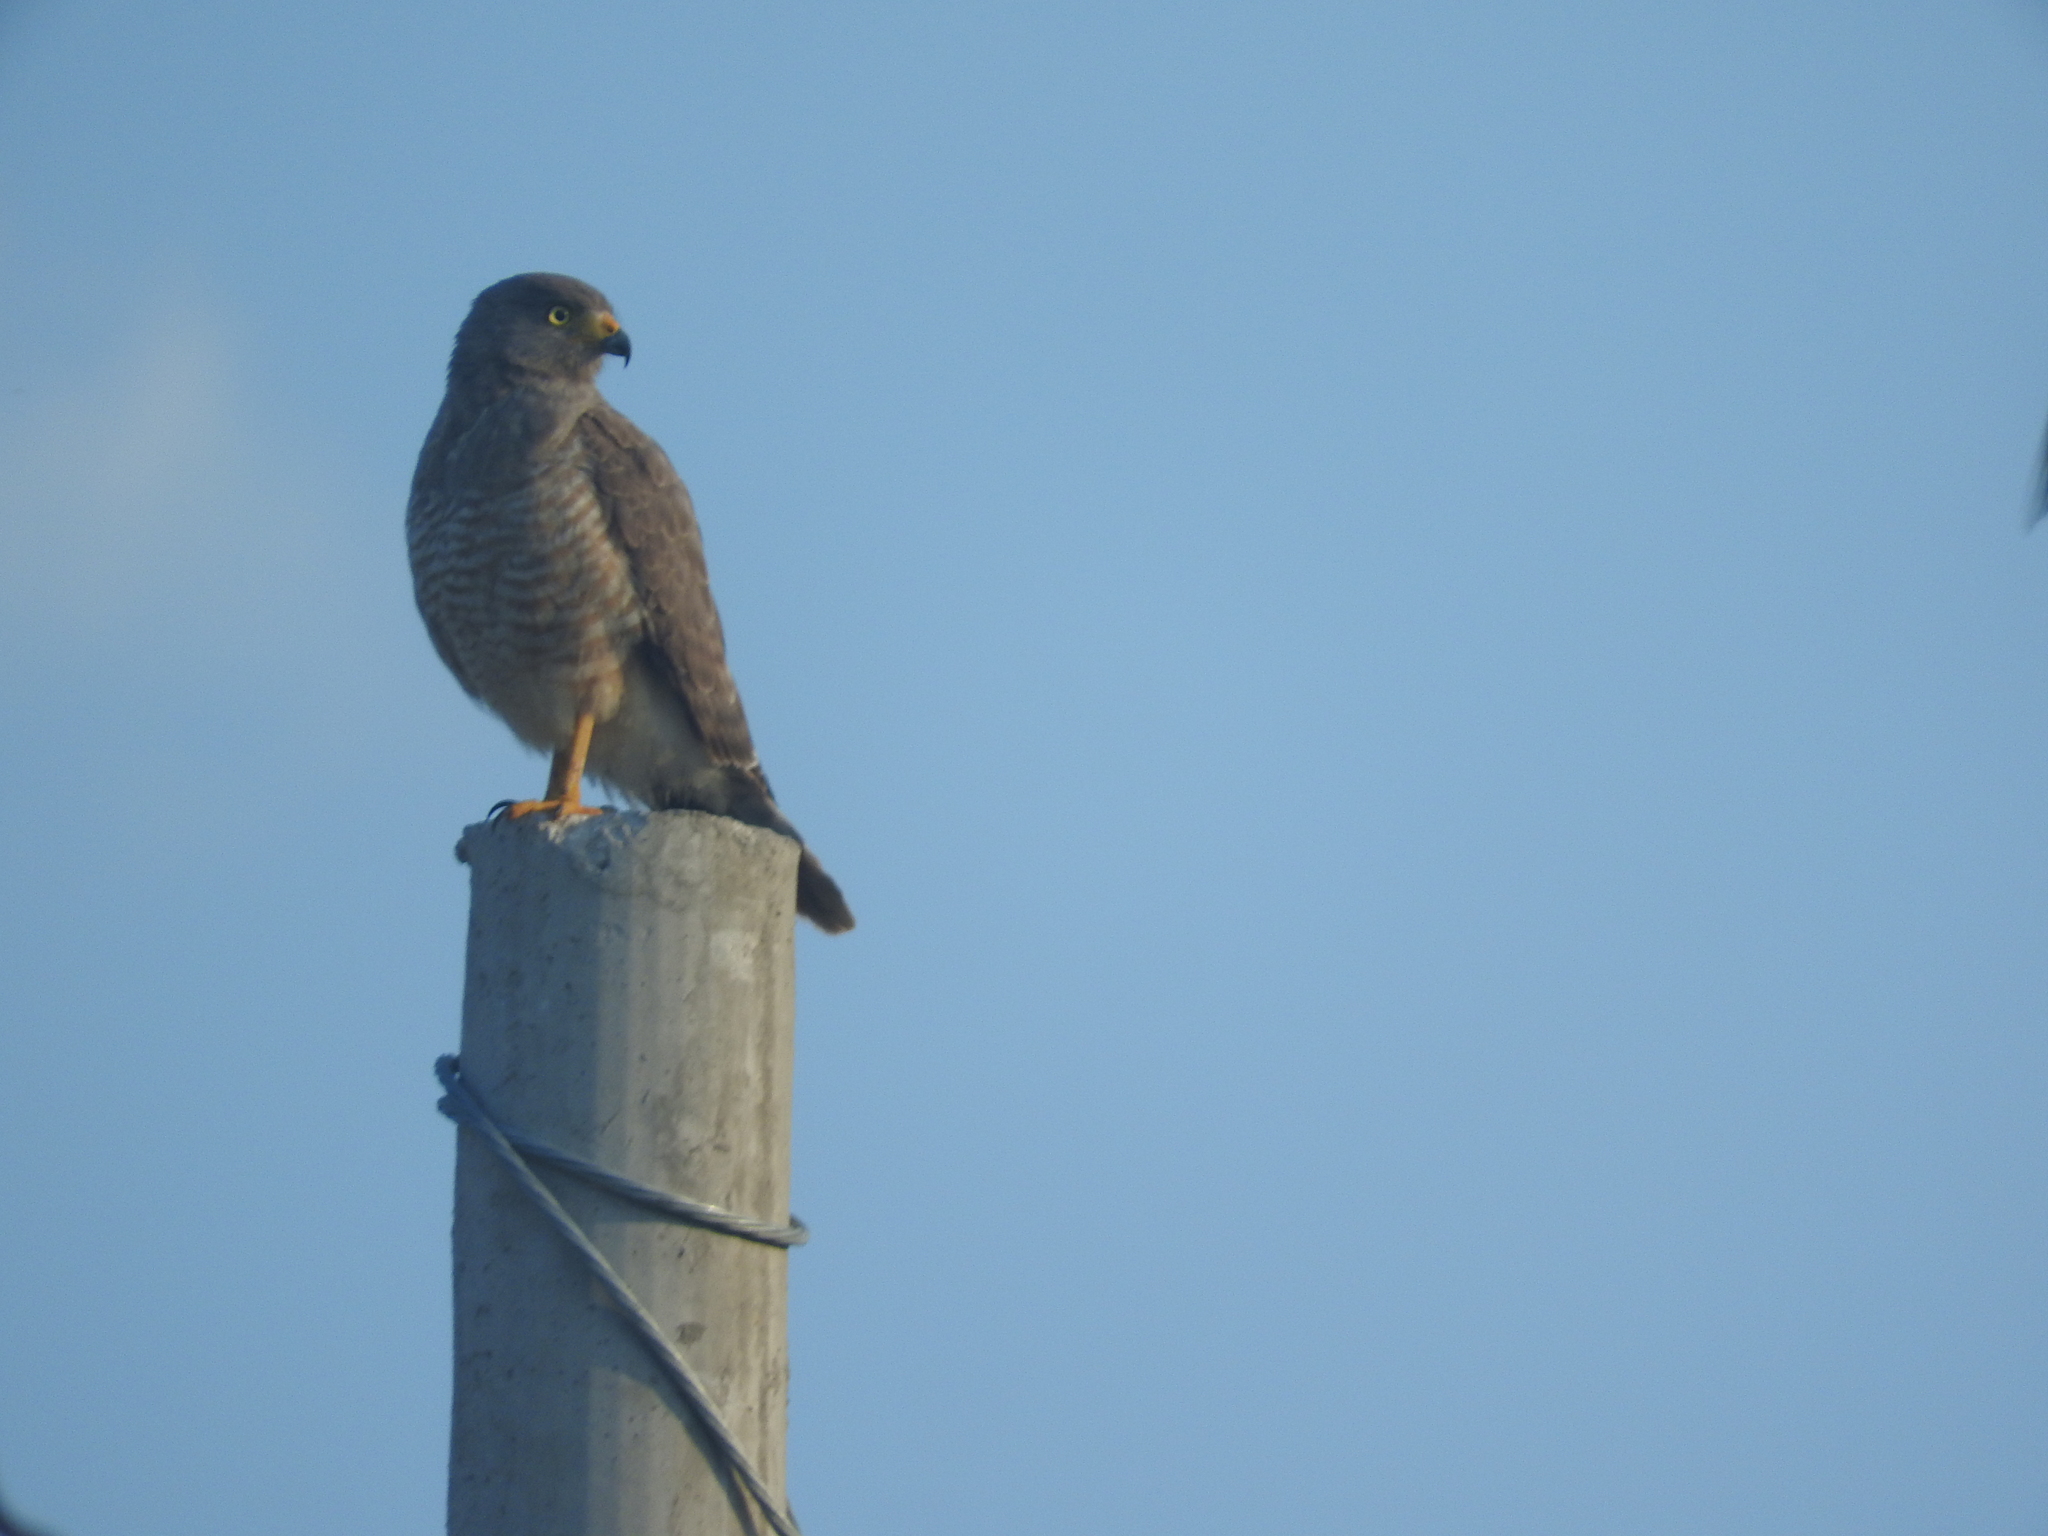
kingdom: Animalia
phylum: Chordata
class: Aves
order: Accipitriformes
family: Accipitridae
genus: Rupornis
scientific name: Rupornis magnirostris
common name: Roadside hawk
